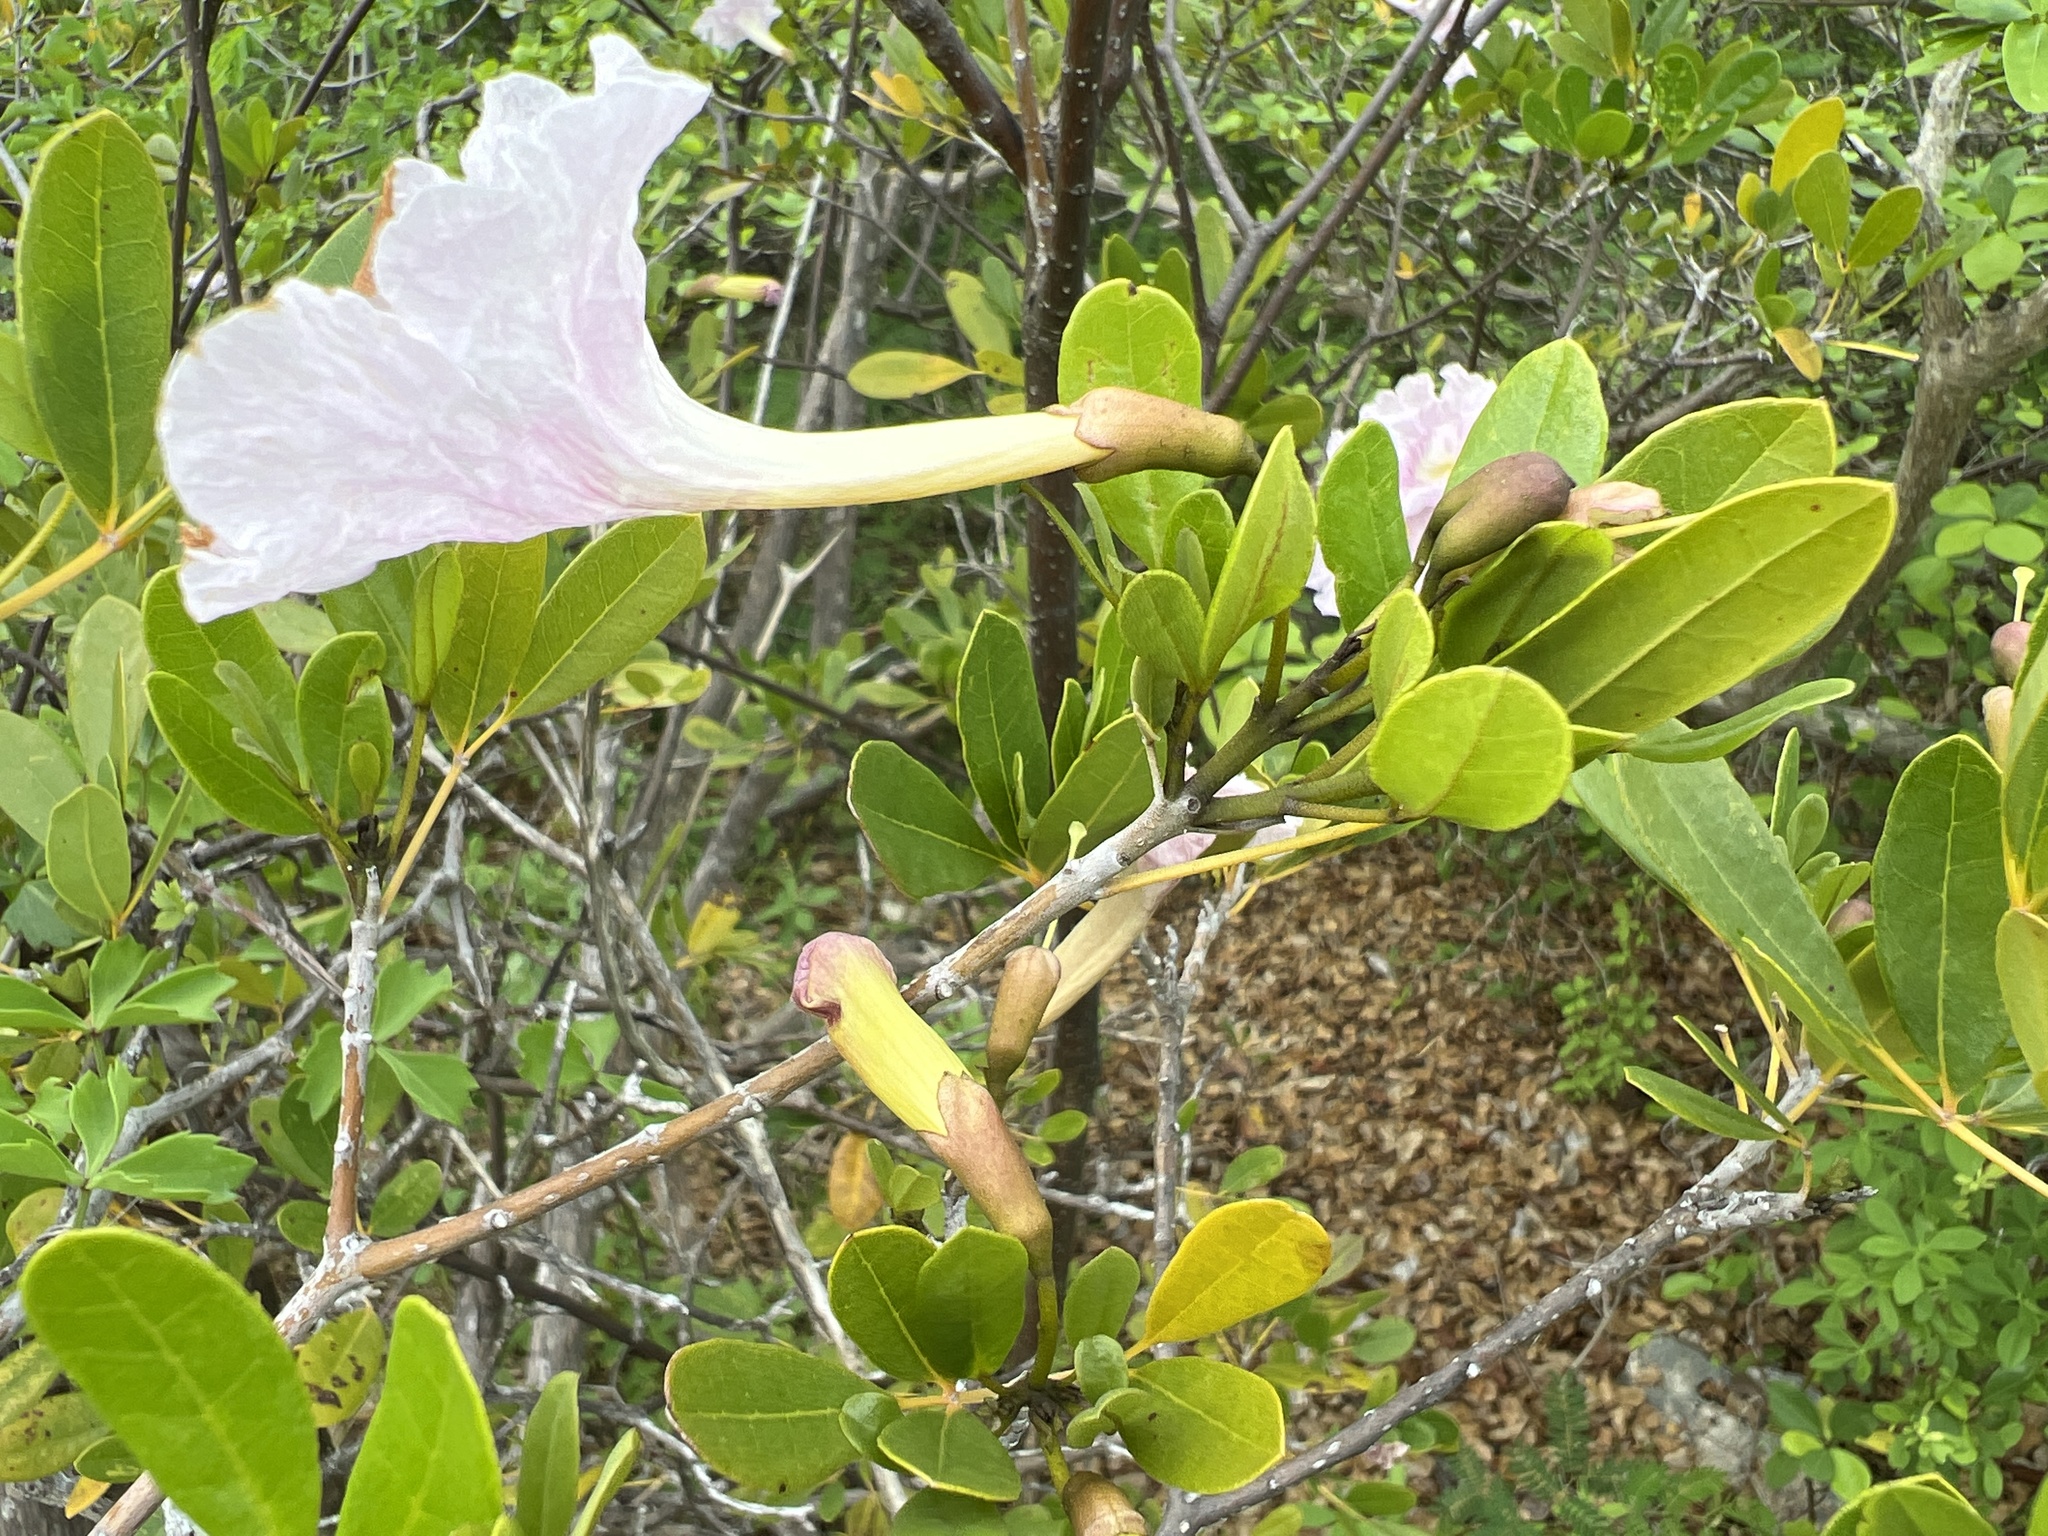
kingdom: Plantae
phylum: Tracheophyta
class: Magnoliopsida
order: Lamiales
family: Bignoniaceae
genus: Tabebuia
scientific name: Tabebuia heterophylla
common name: White cedar
